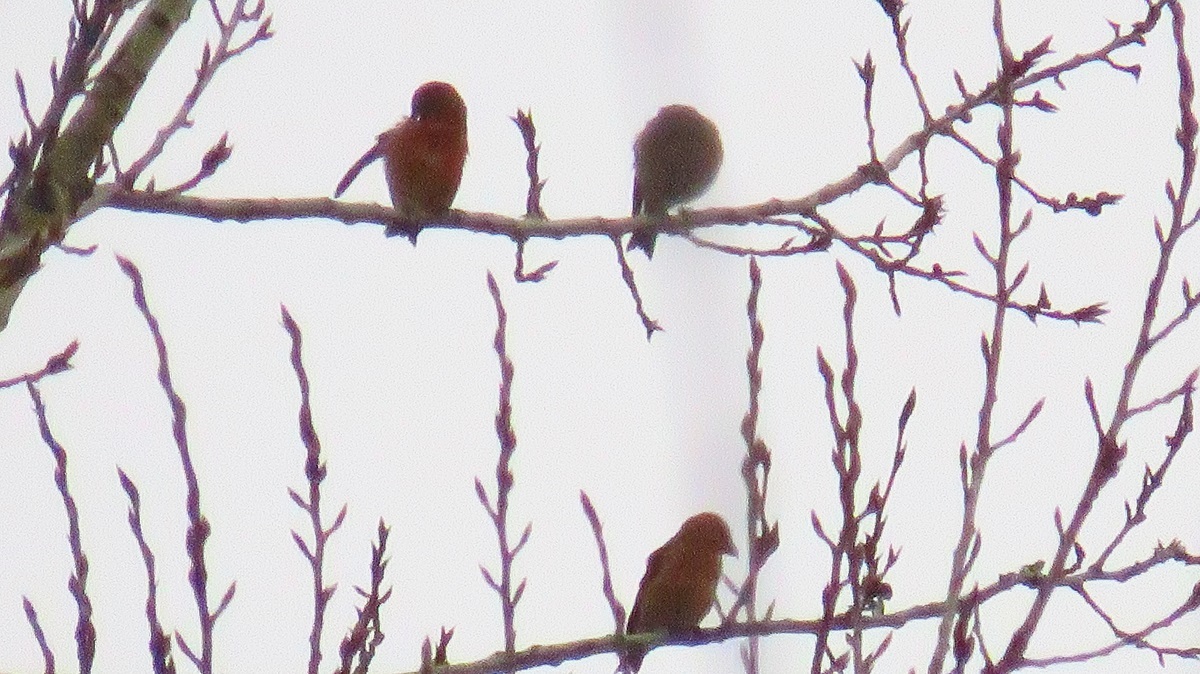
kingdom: Animalia
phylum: Chordata
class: Aves
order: Passeriformes
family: Fringillidae
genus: Loxia
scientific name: Loxia curvirostra
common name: Red crossbill
